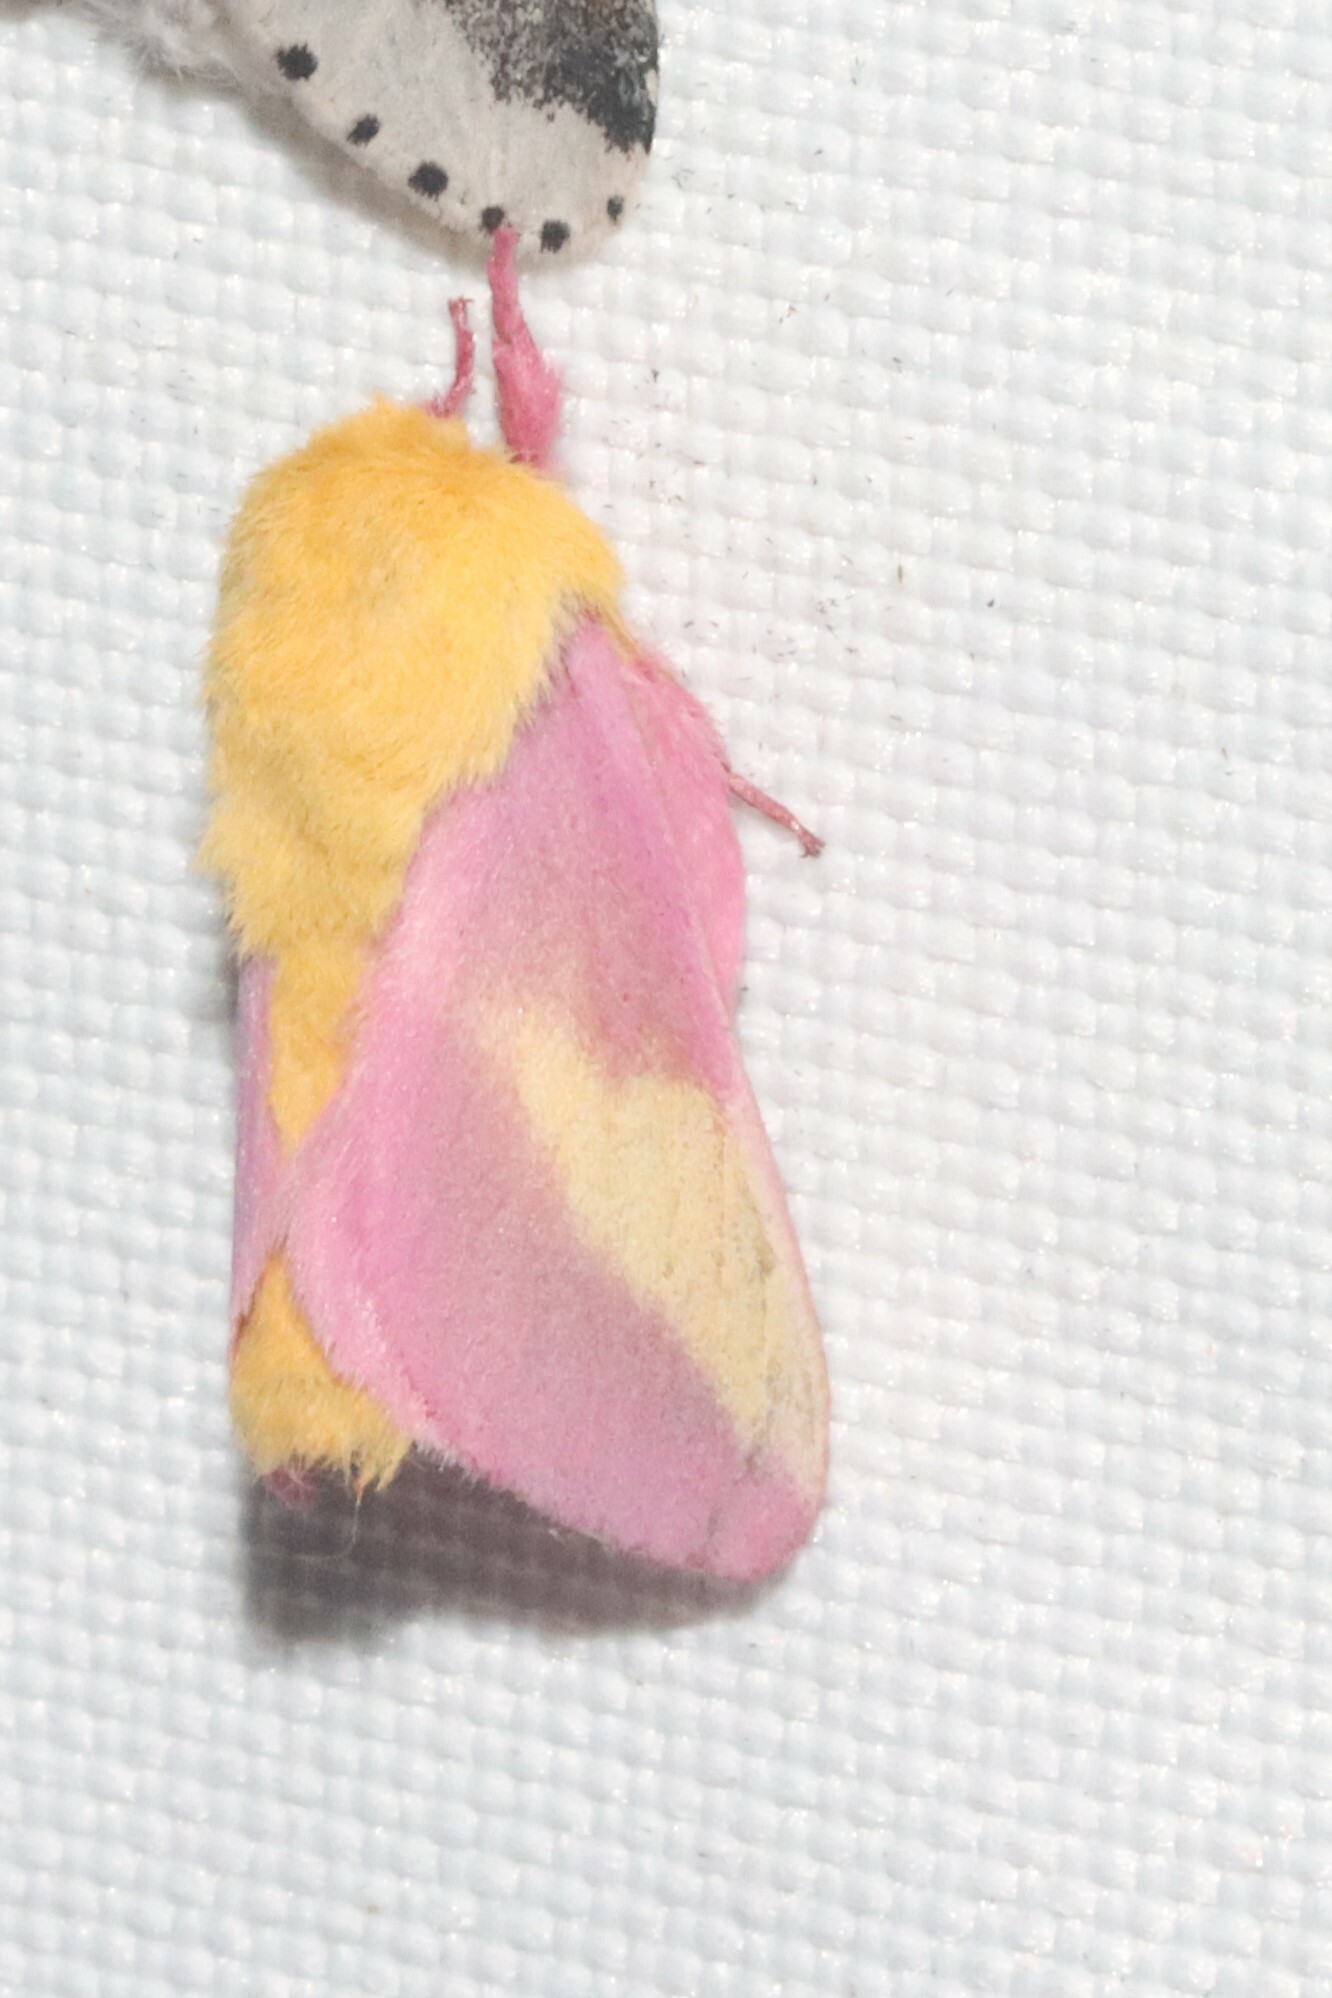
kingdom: Animalia
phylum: Arthropoda
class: Insecta
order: Lepidoptera
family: Saturniidae
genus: Dryocampa
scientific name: Dryocampa rubicunda
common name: Rosy maple moth
